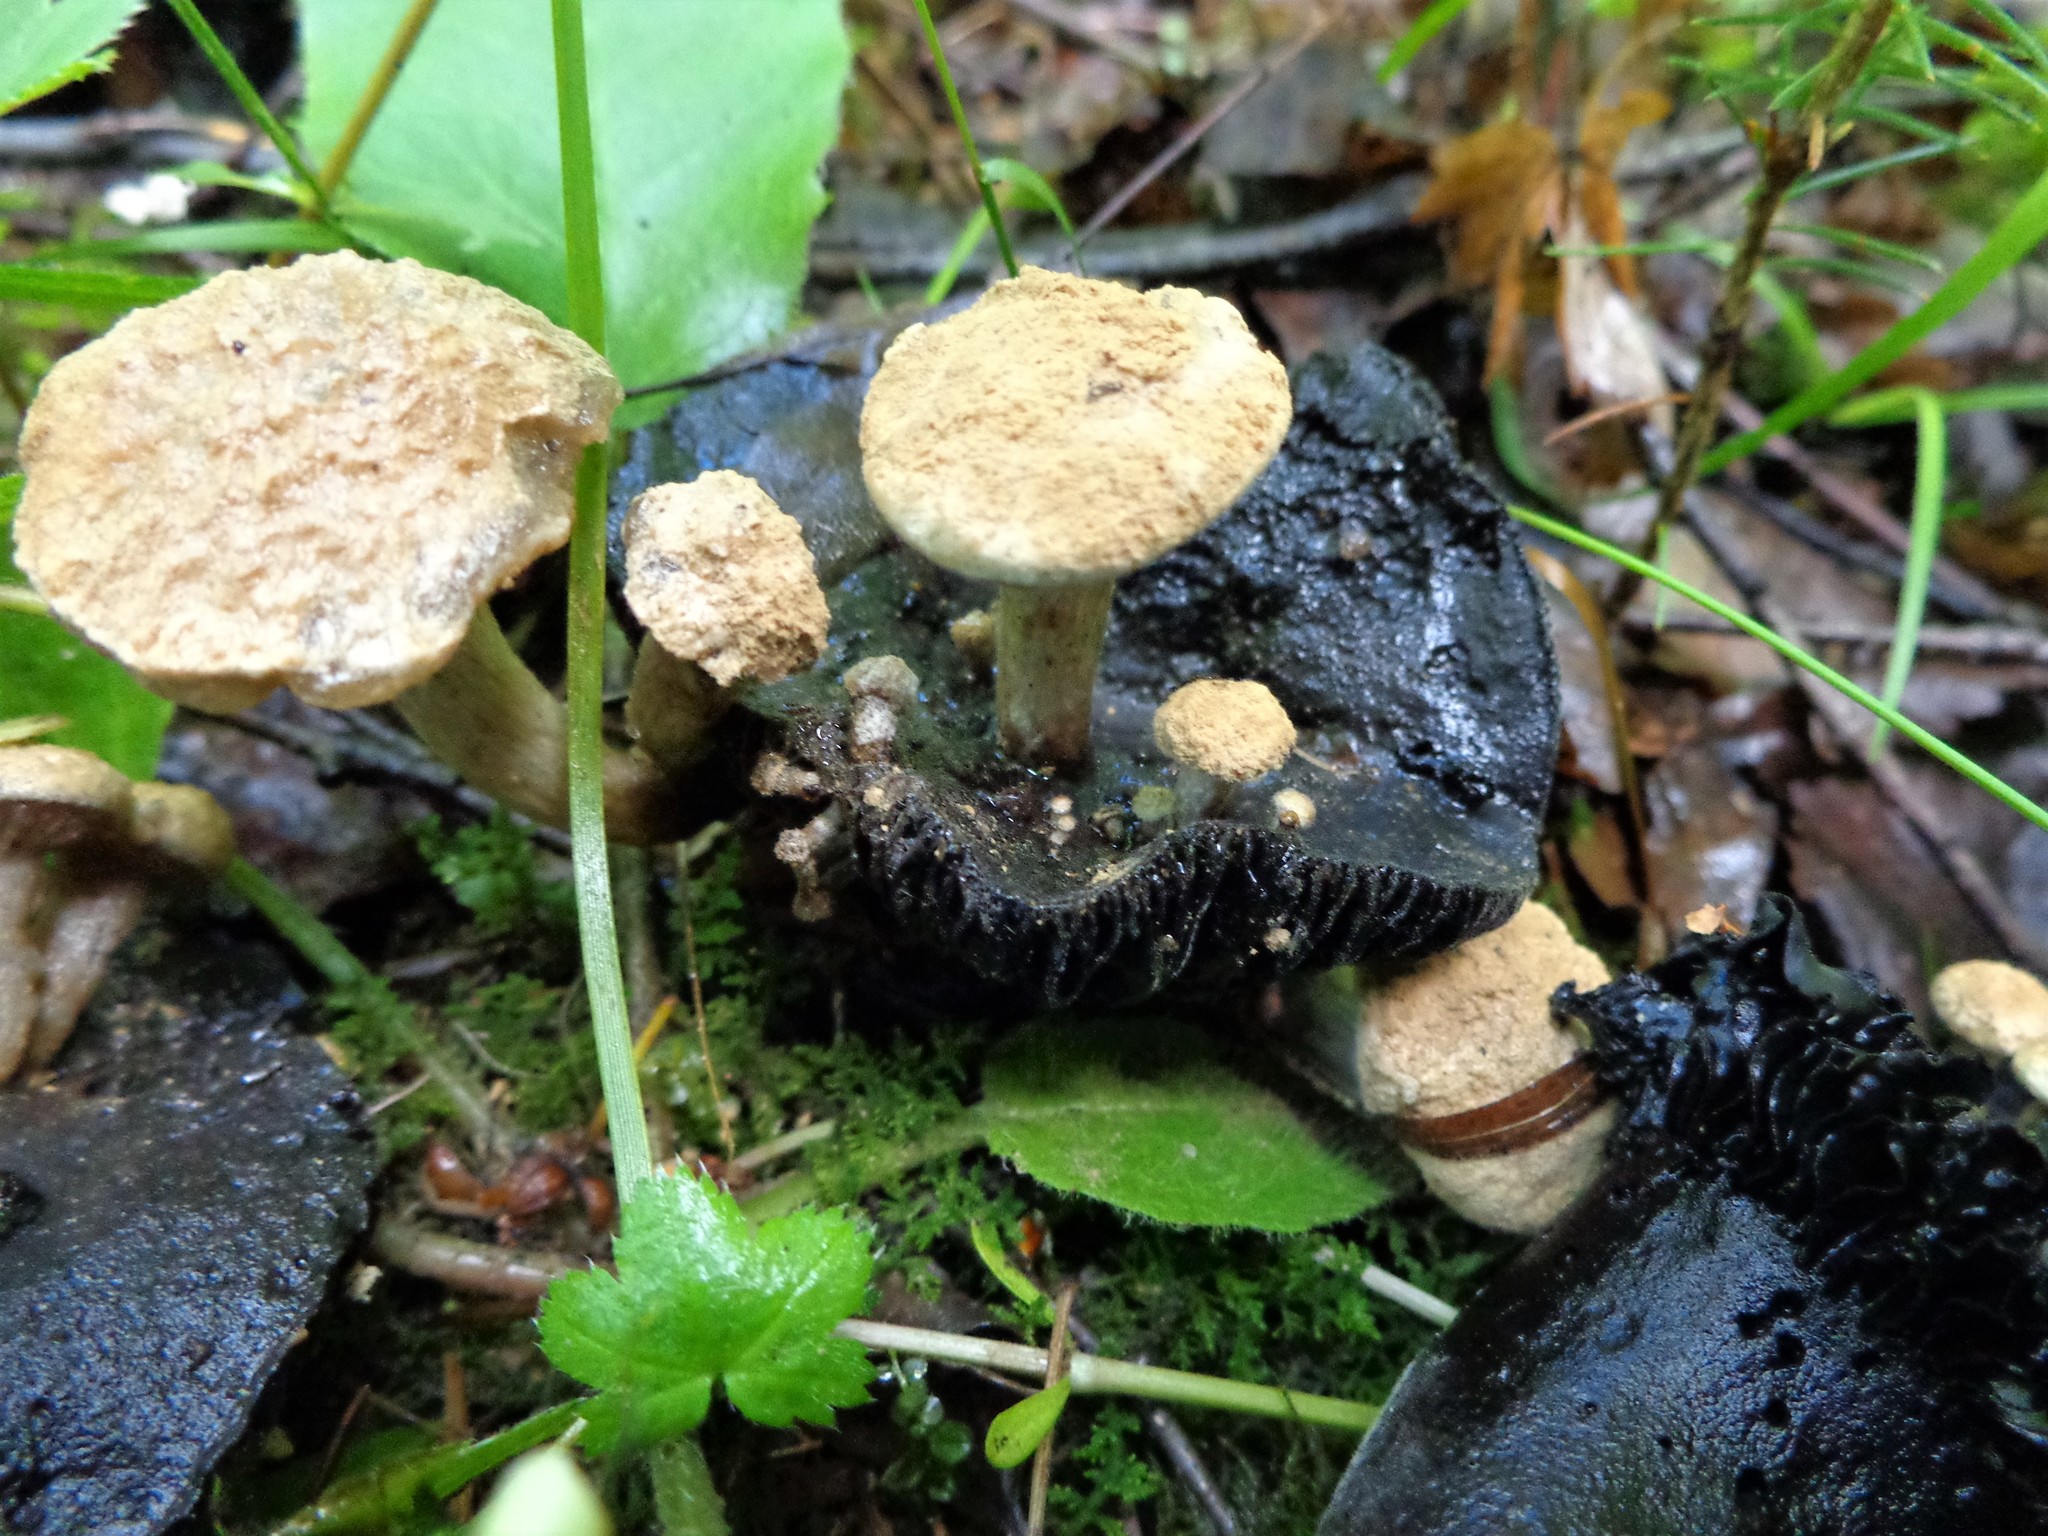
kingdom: Fungi
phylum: Basidiomycota
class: Agaricomycetes
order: Agaricales
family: Lyophyllaceae
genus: Asterophora
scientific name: Asterophora lycoperdoides
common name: Pick-a-back toadstool
